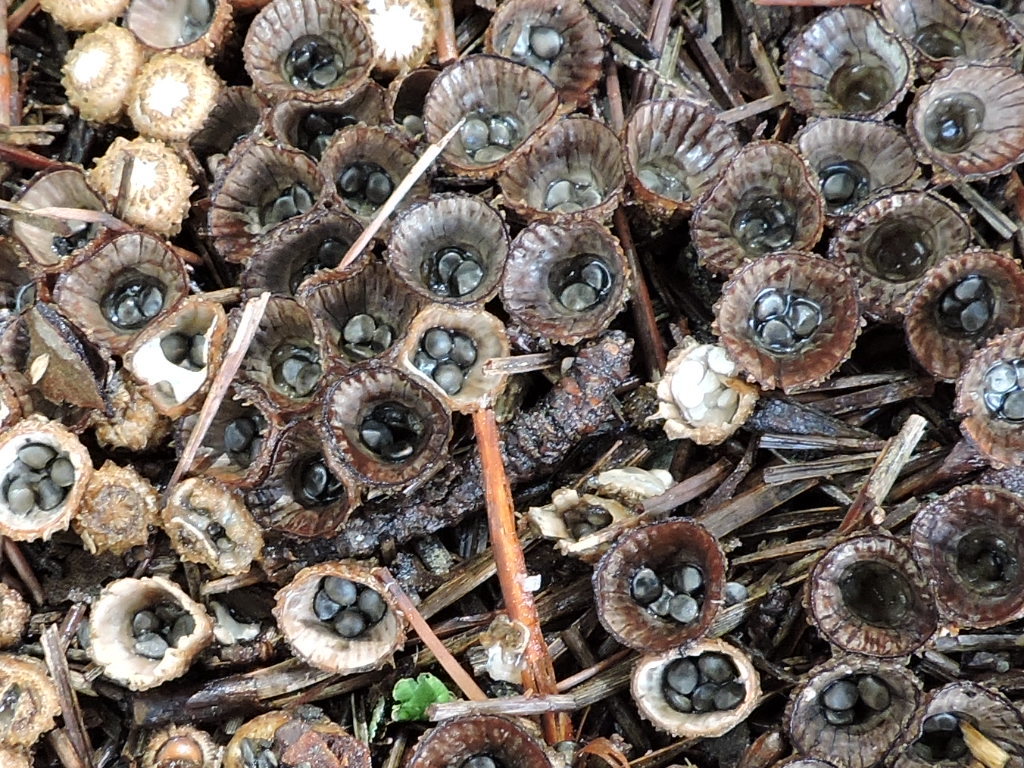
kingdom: Fungi
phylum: Basidiomycota
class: Agaricomycetes
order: Agaricales
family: Agaricaceae
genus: Cyathus
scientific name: Cyathus striatus
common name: Fluted bird's nest
